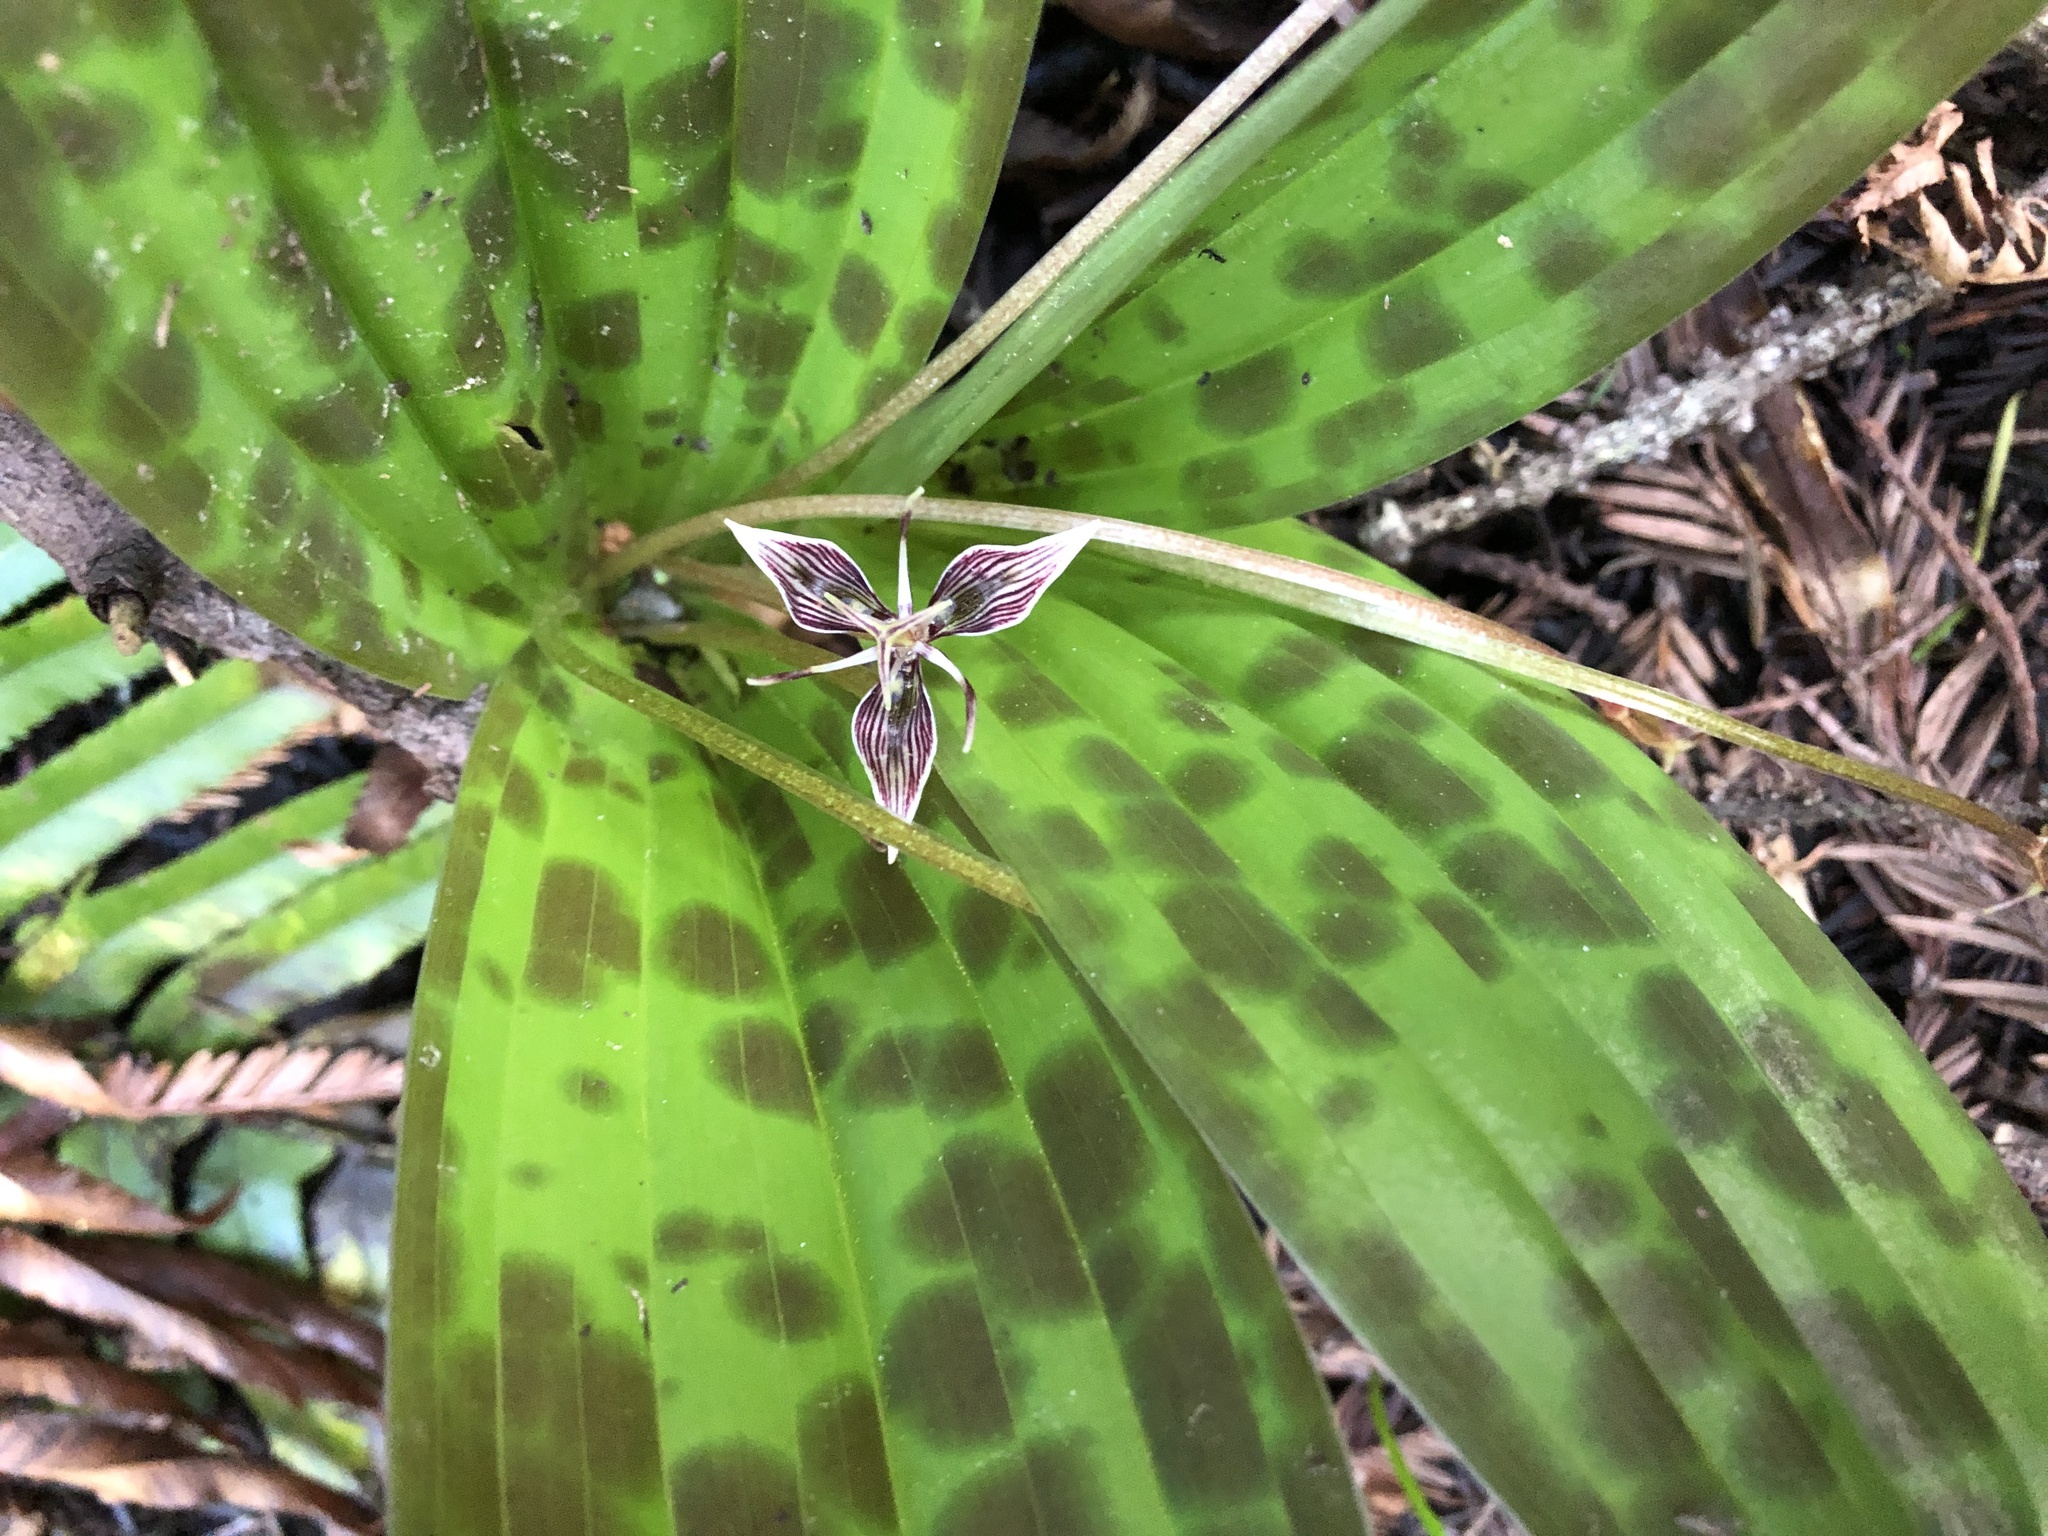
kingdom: Plantae
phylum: Tracheophyta
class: Liliopsida
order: Liliales
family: Liliaceae
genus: Scoliopus
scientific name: Scoliopus bigelovii
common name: Foetid adder's-tongue
